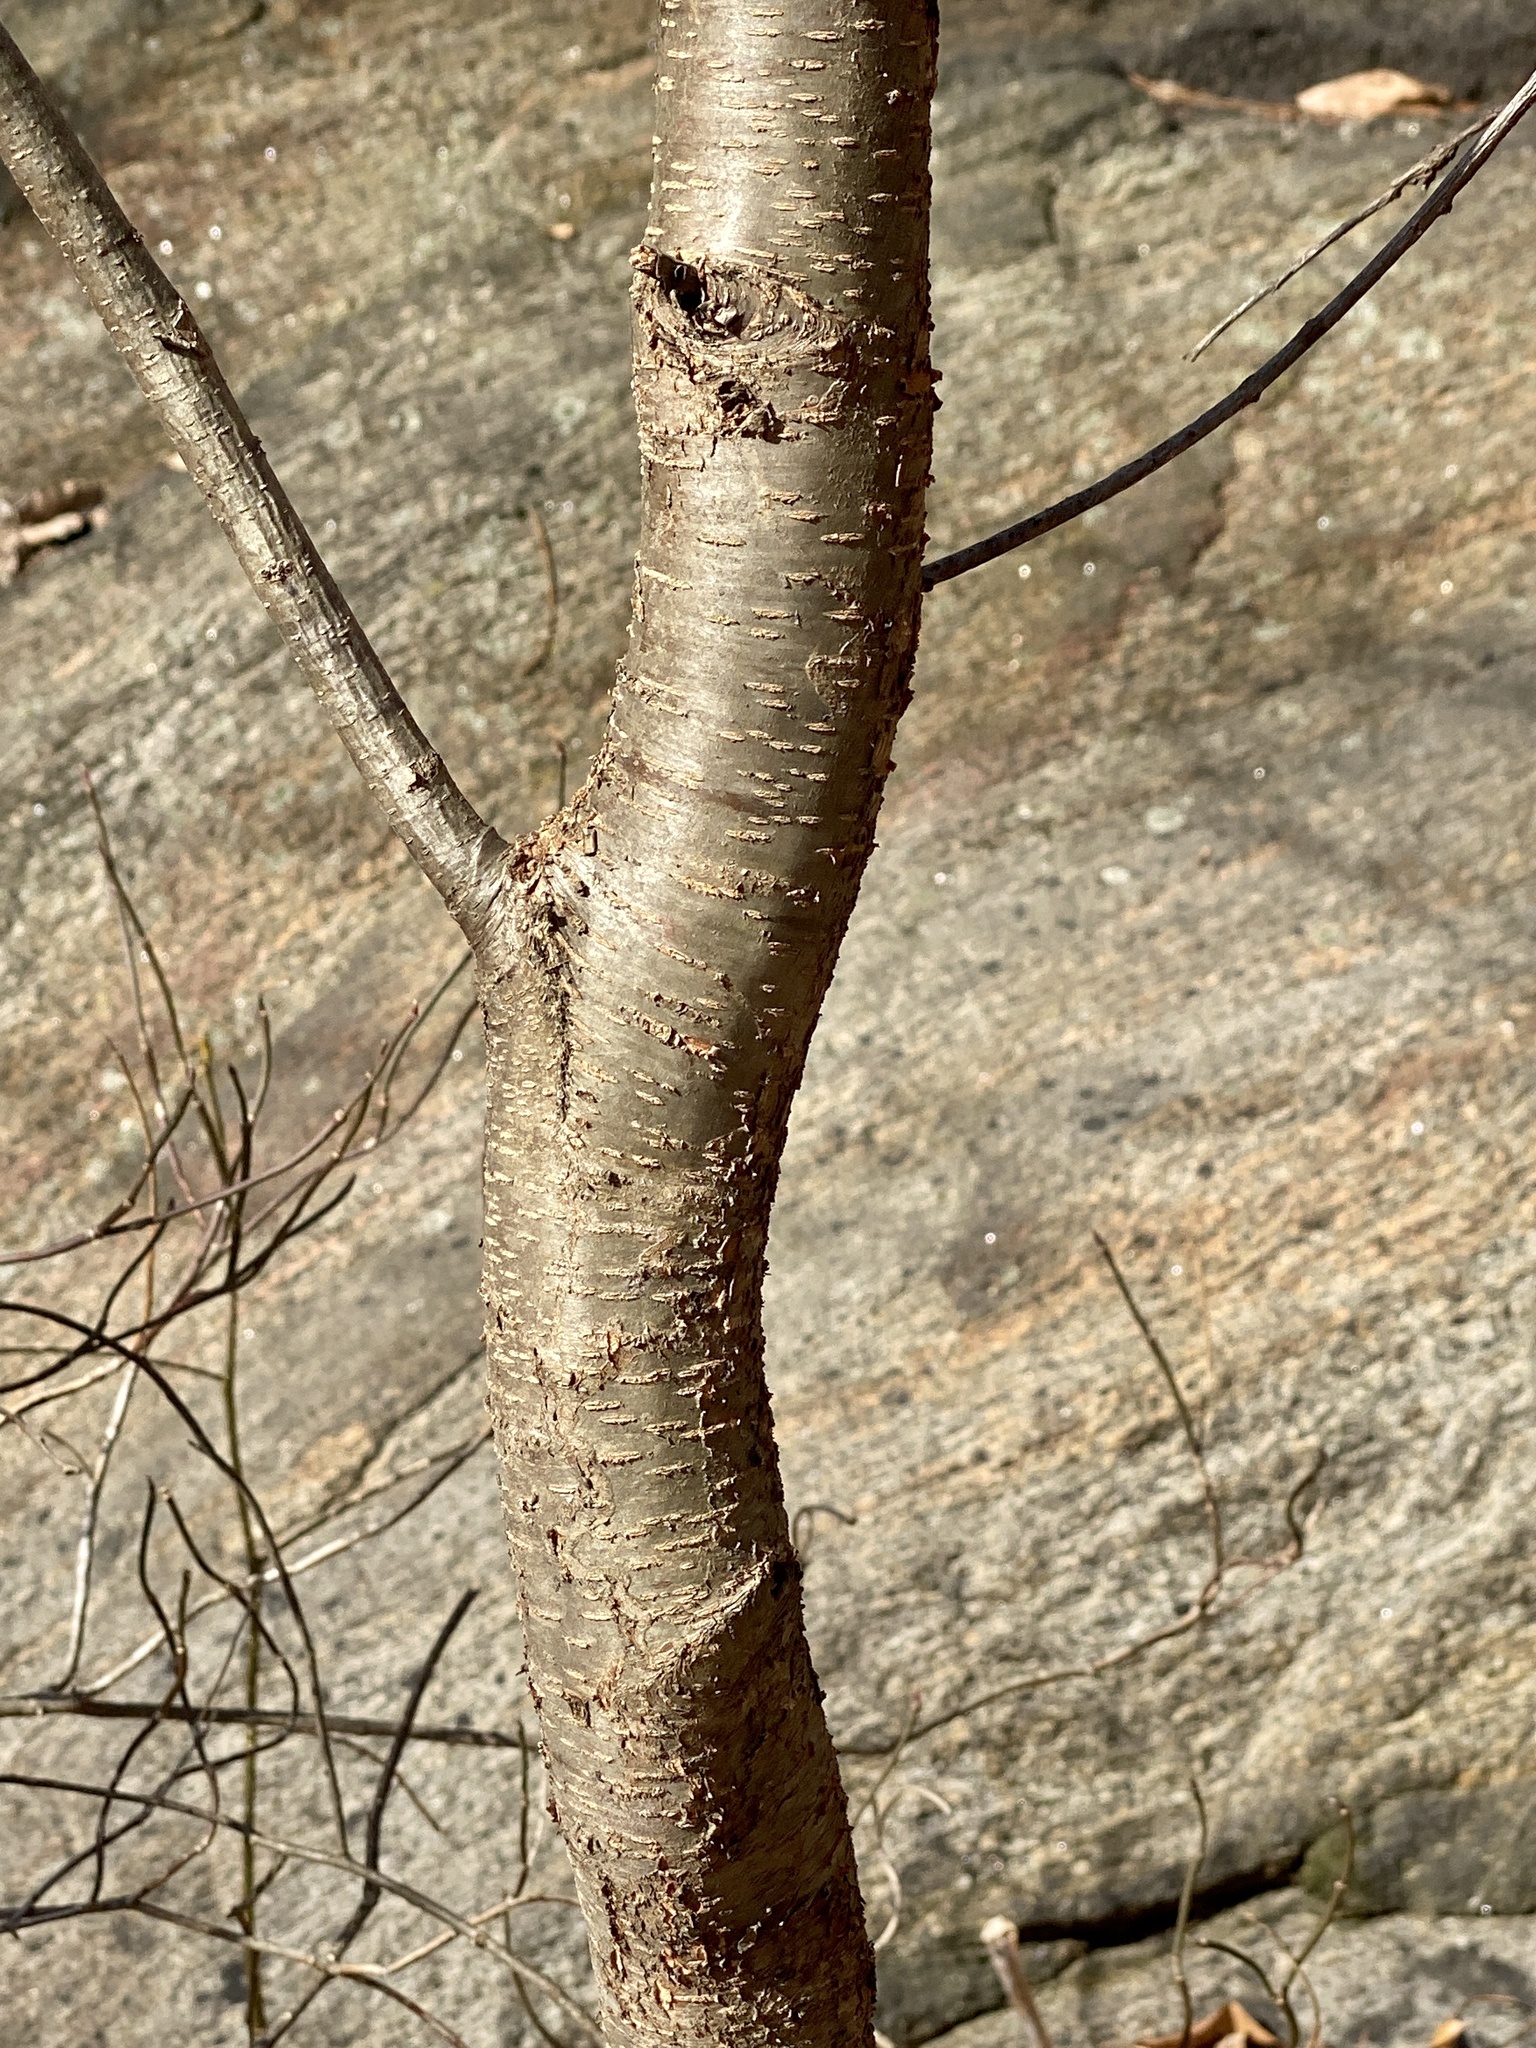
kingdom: Fungi
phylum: Ascomycota
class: Dothideomycetes
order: Venturiales
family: Venturiaceae
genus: Apiosporina
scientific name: Apiosporina morbosa
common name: Black knot
